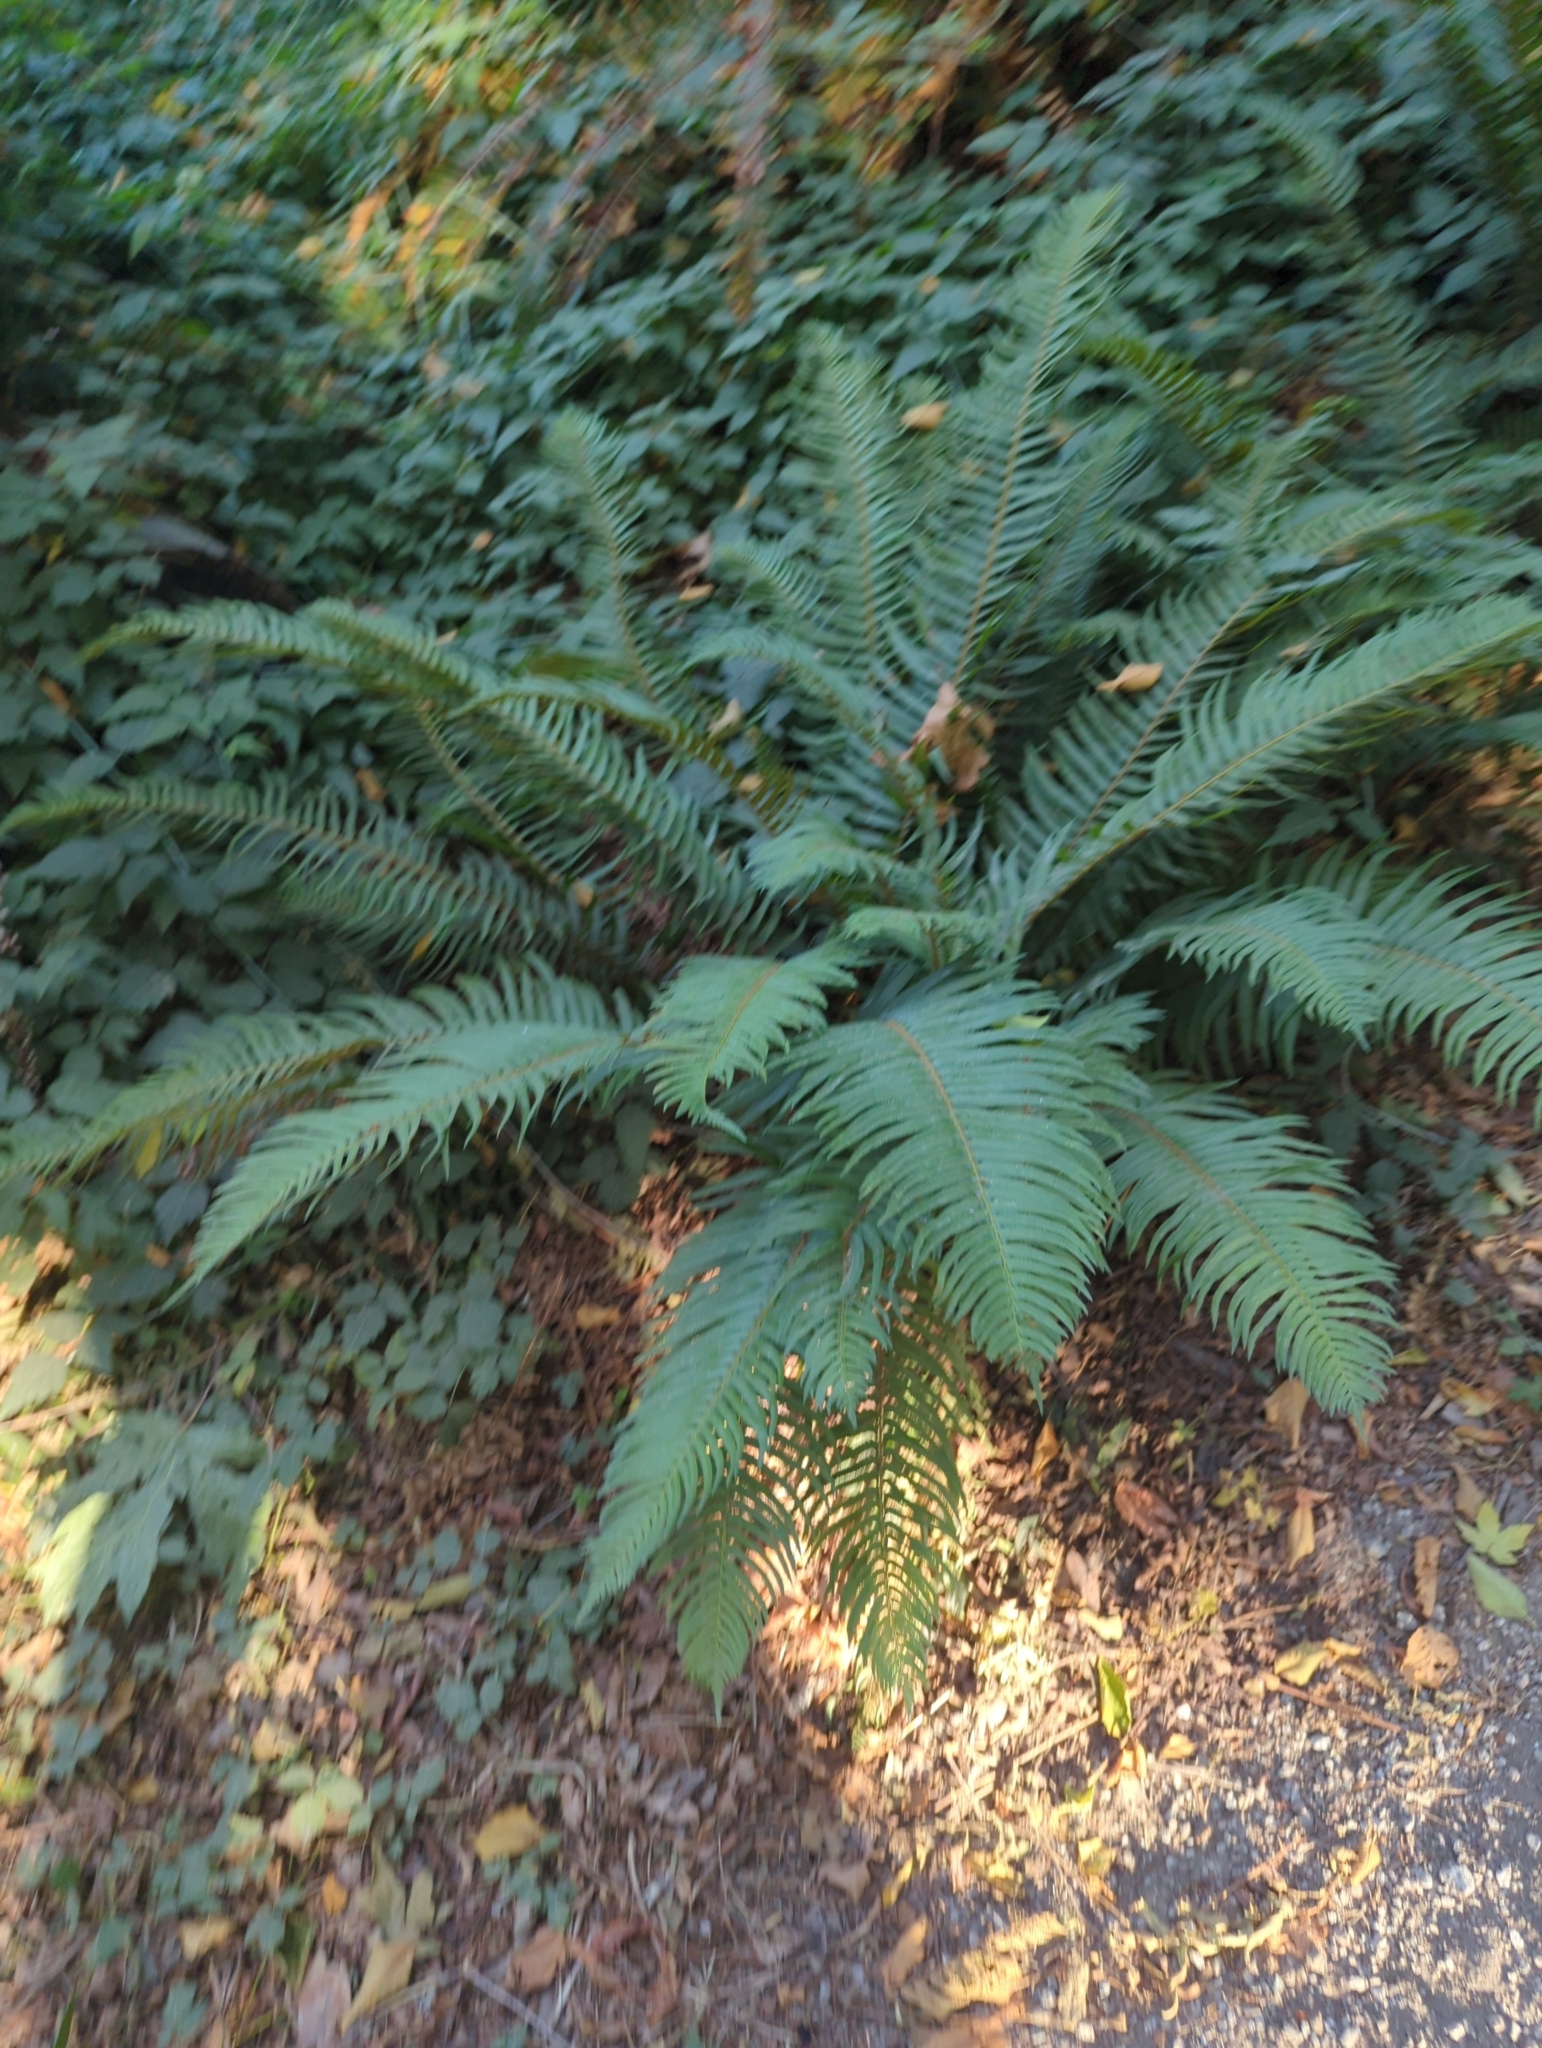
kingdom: Plantae
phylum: Tracheophyta
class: Polypodiopsida
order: Polypodiales
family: Dryopteridaceae
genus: Polystichum
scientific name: Polystichum munitum
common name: Western sword-fern
